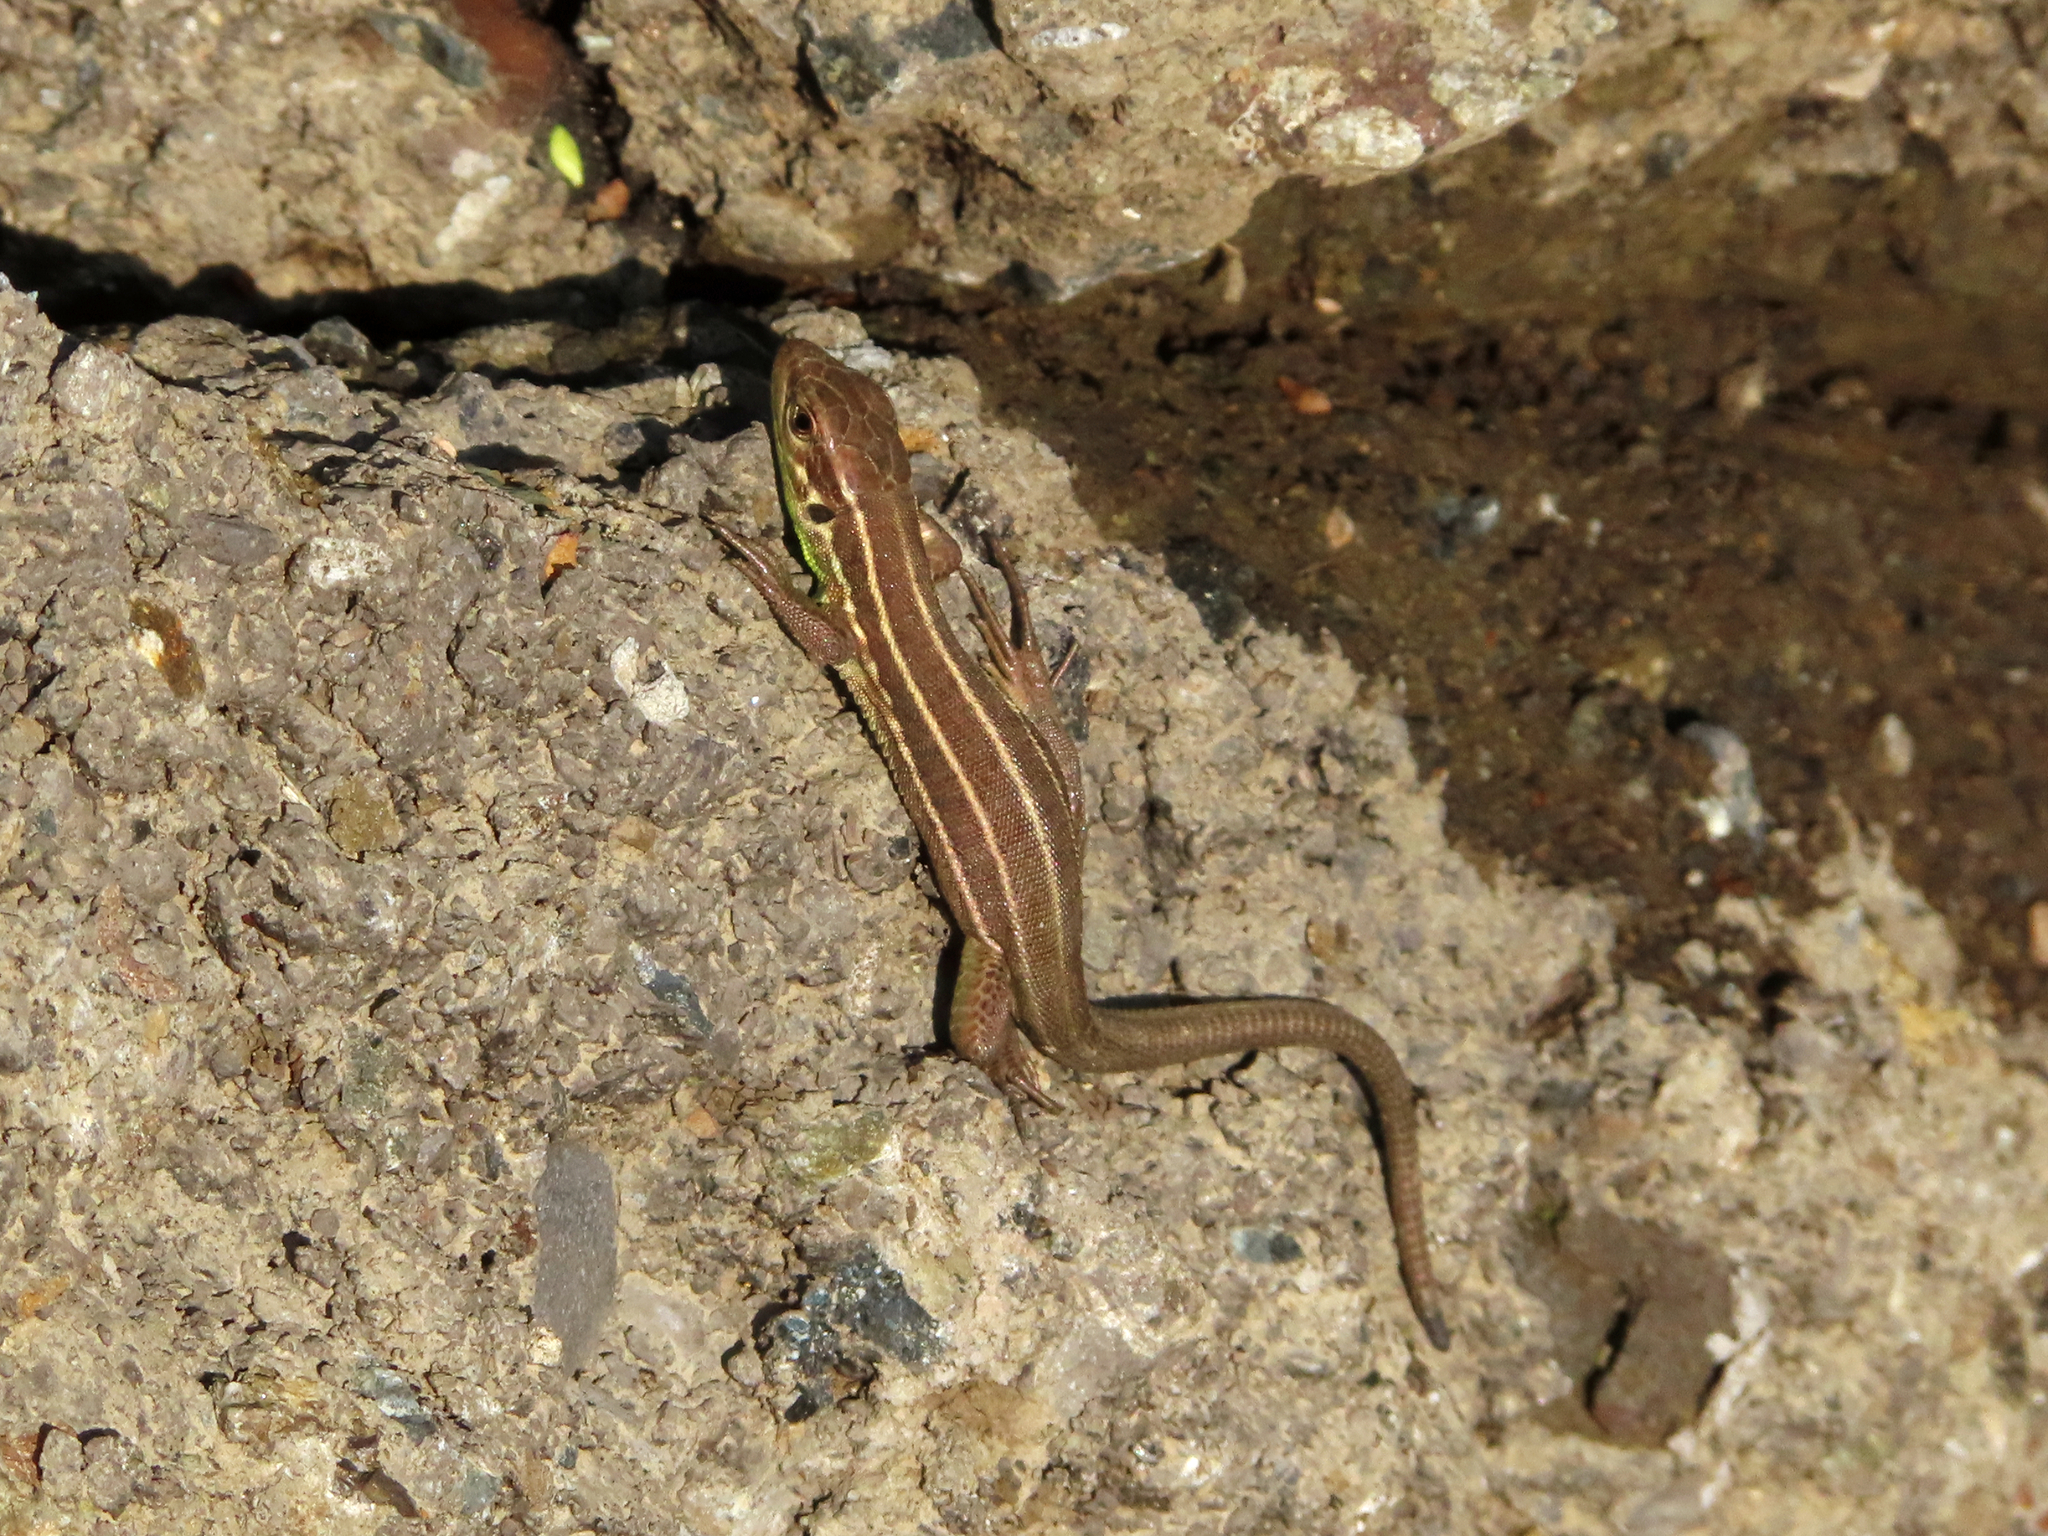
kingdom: Animalia
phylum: Chordata
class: Squamata
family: Lacertidae
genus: Lacerta
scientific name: Lacerta strigata
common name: Caspian green lizard
